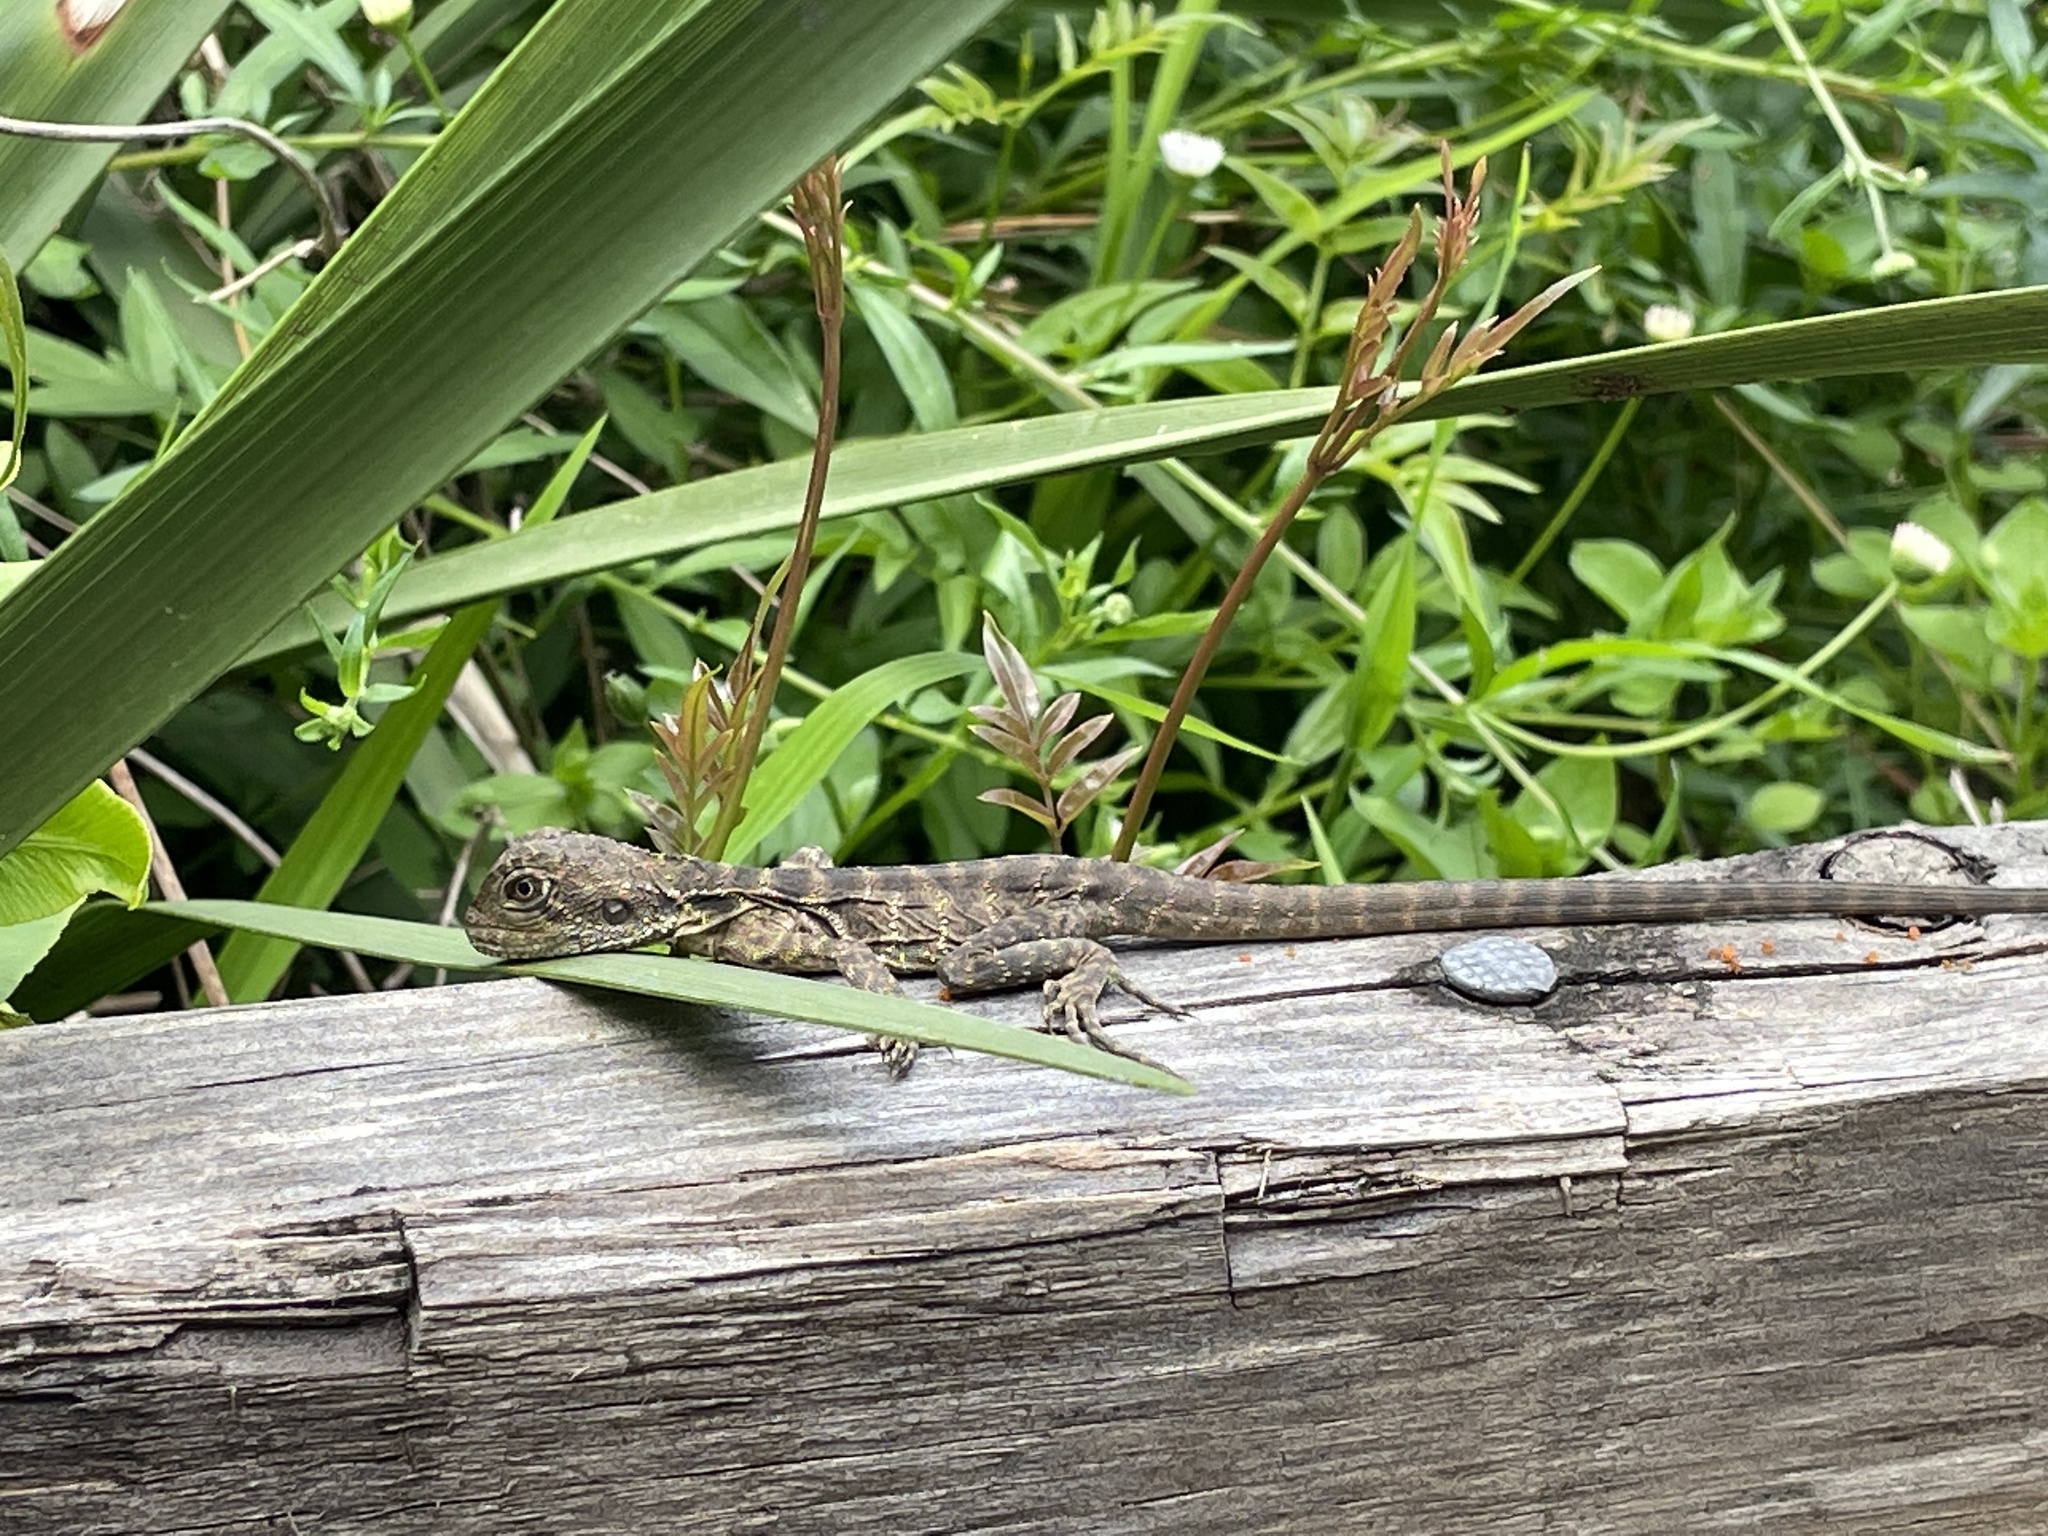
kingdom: Animalia
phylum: Chordata
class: Squamata
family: Agamidae
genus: Intellagama
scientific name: Intellagama lesueurii
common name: Eastern water dragon
